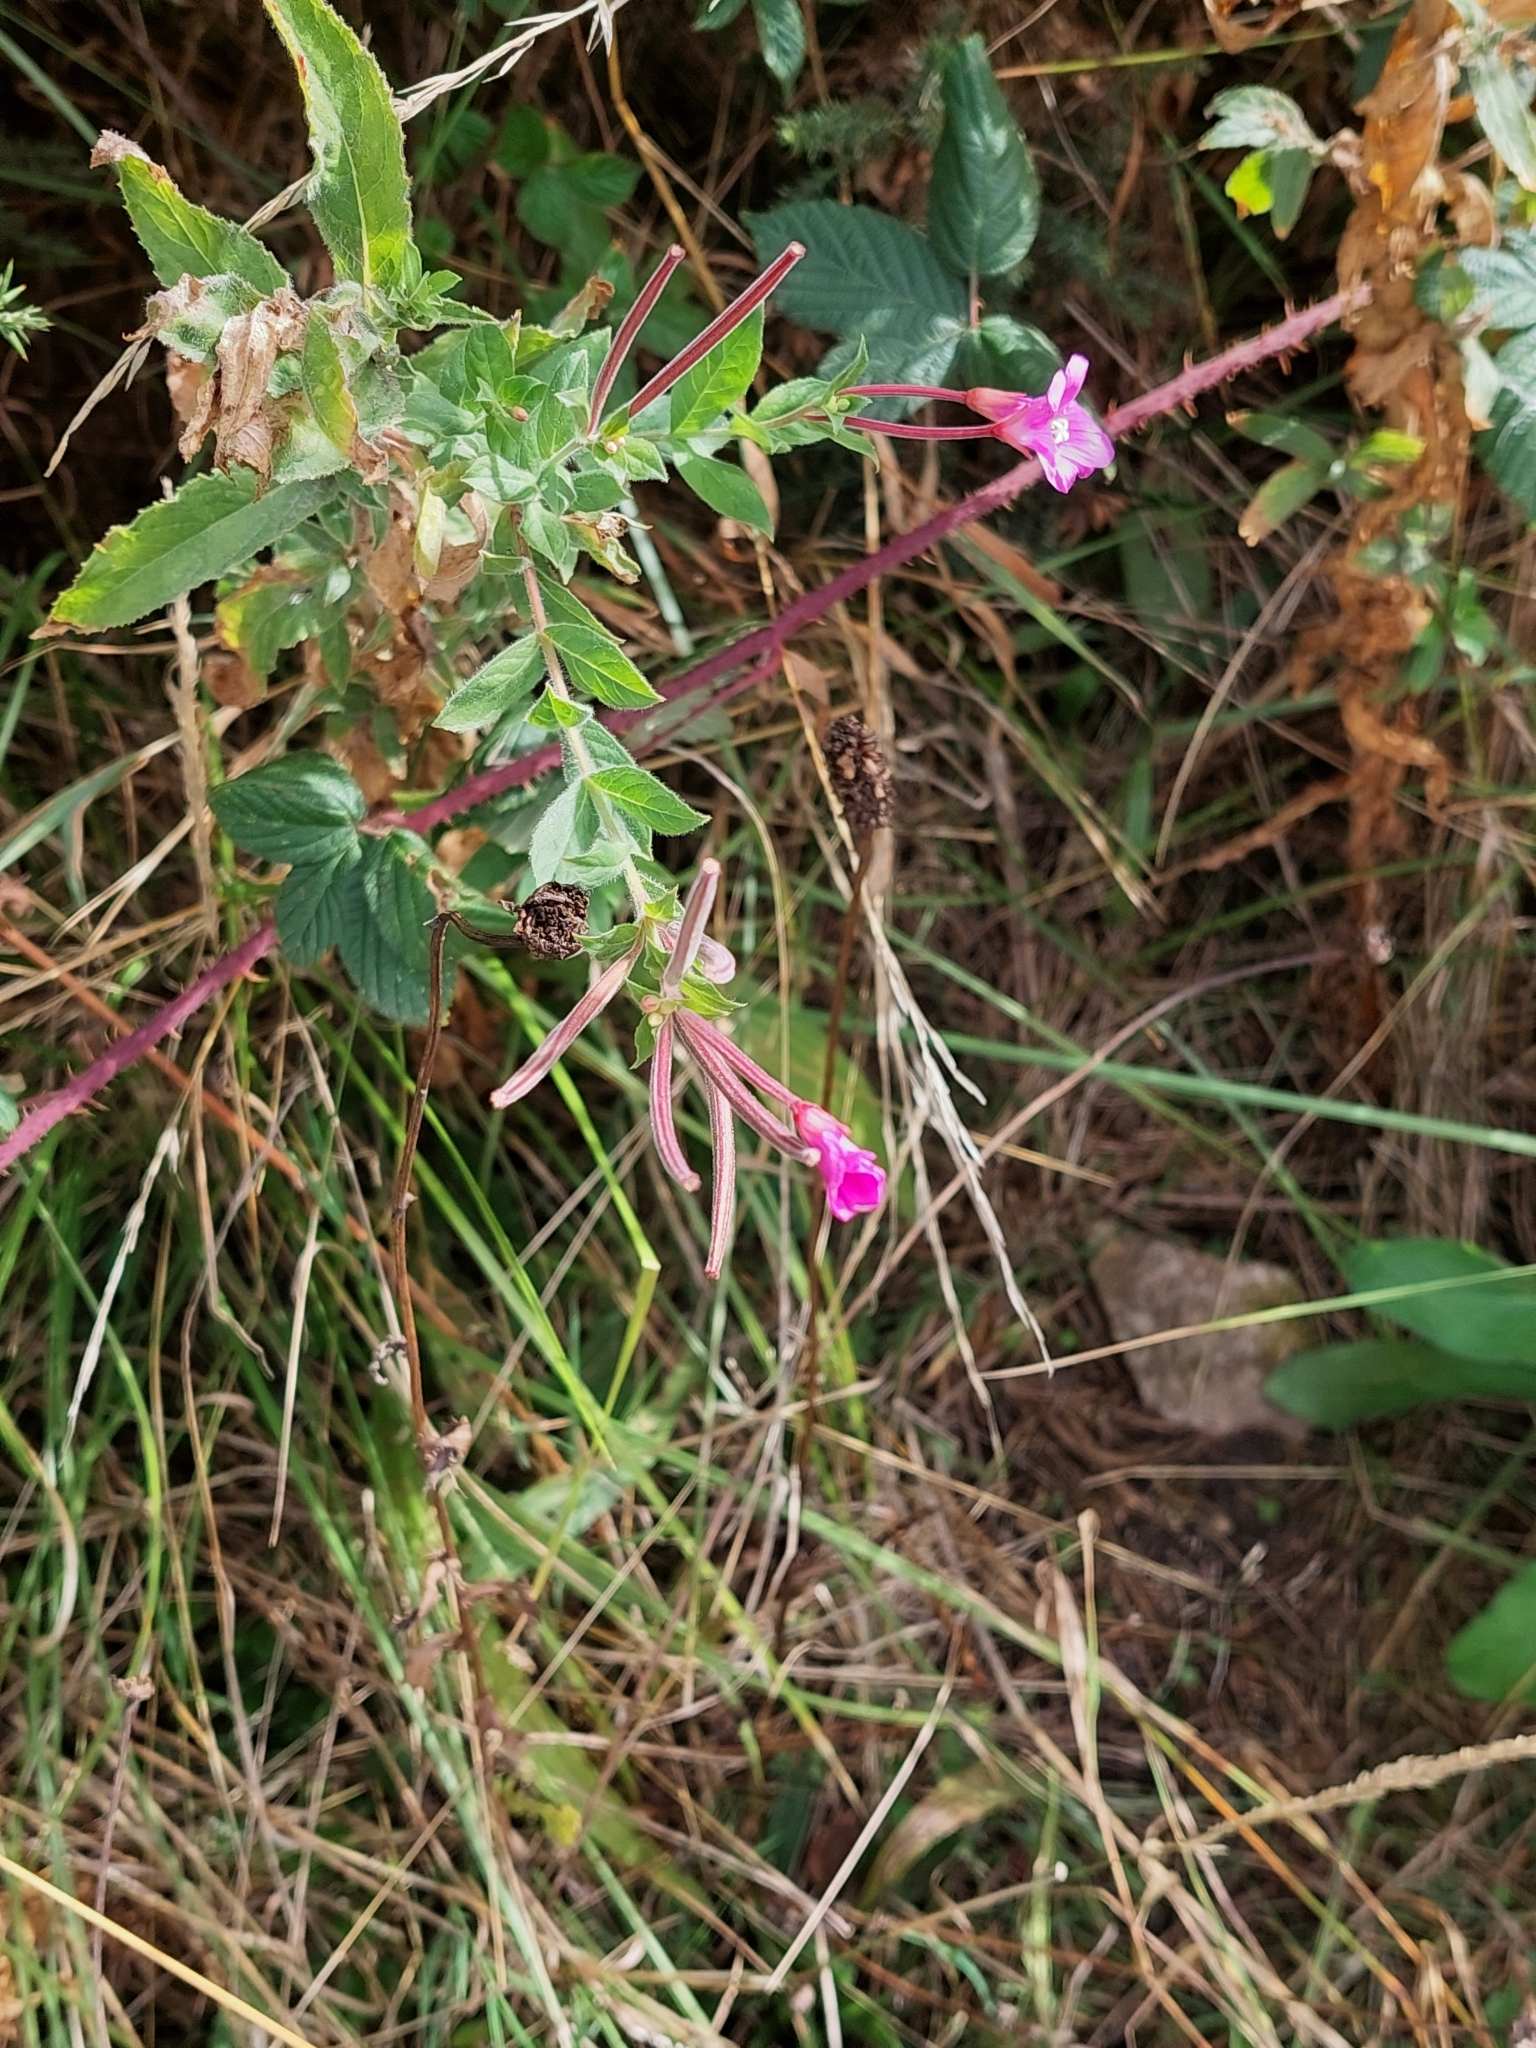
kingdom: Plantae
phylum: Tracheophyta
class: Magnoliopsida
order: Myrtales
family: Onagraceae
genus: Epilobium
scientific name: Epilobium hirsutum
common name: Great willowherb
